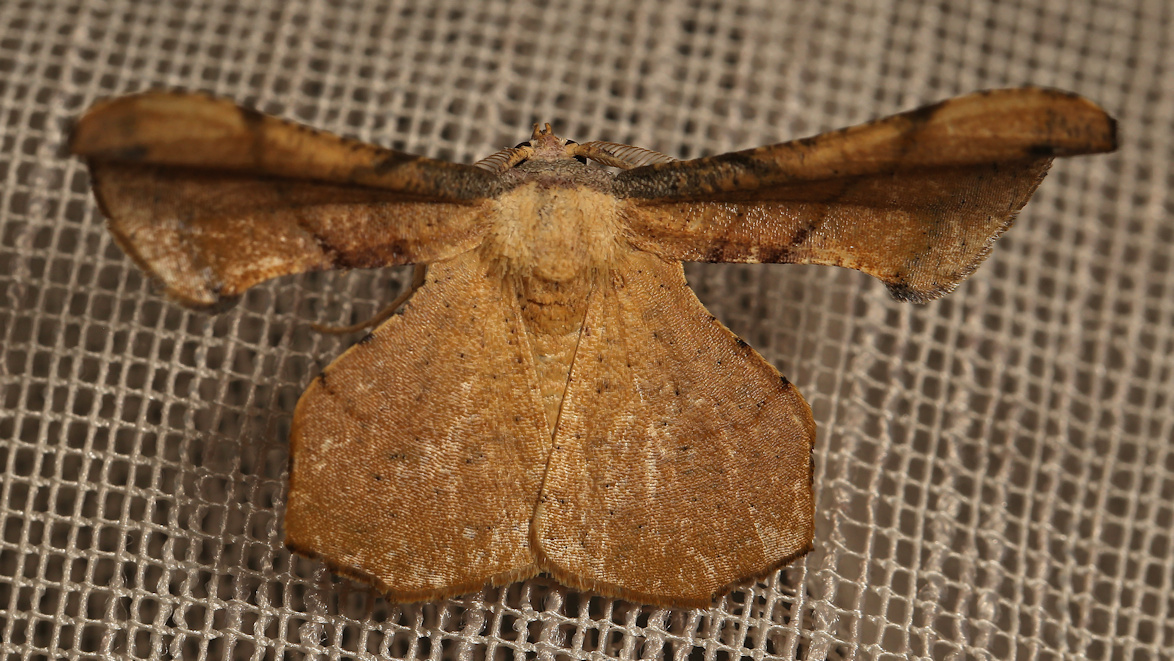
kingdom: Animalia
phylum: Arthropoda
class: Insecta
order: Lepidoptera
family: Geometridae
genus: Xenimpia
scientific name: Xenimpia erosa
